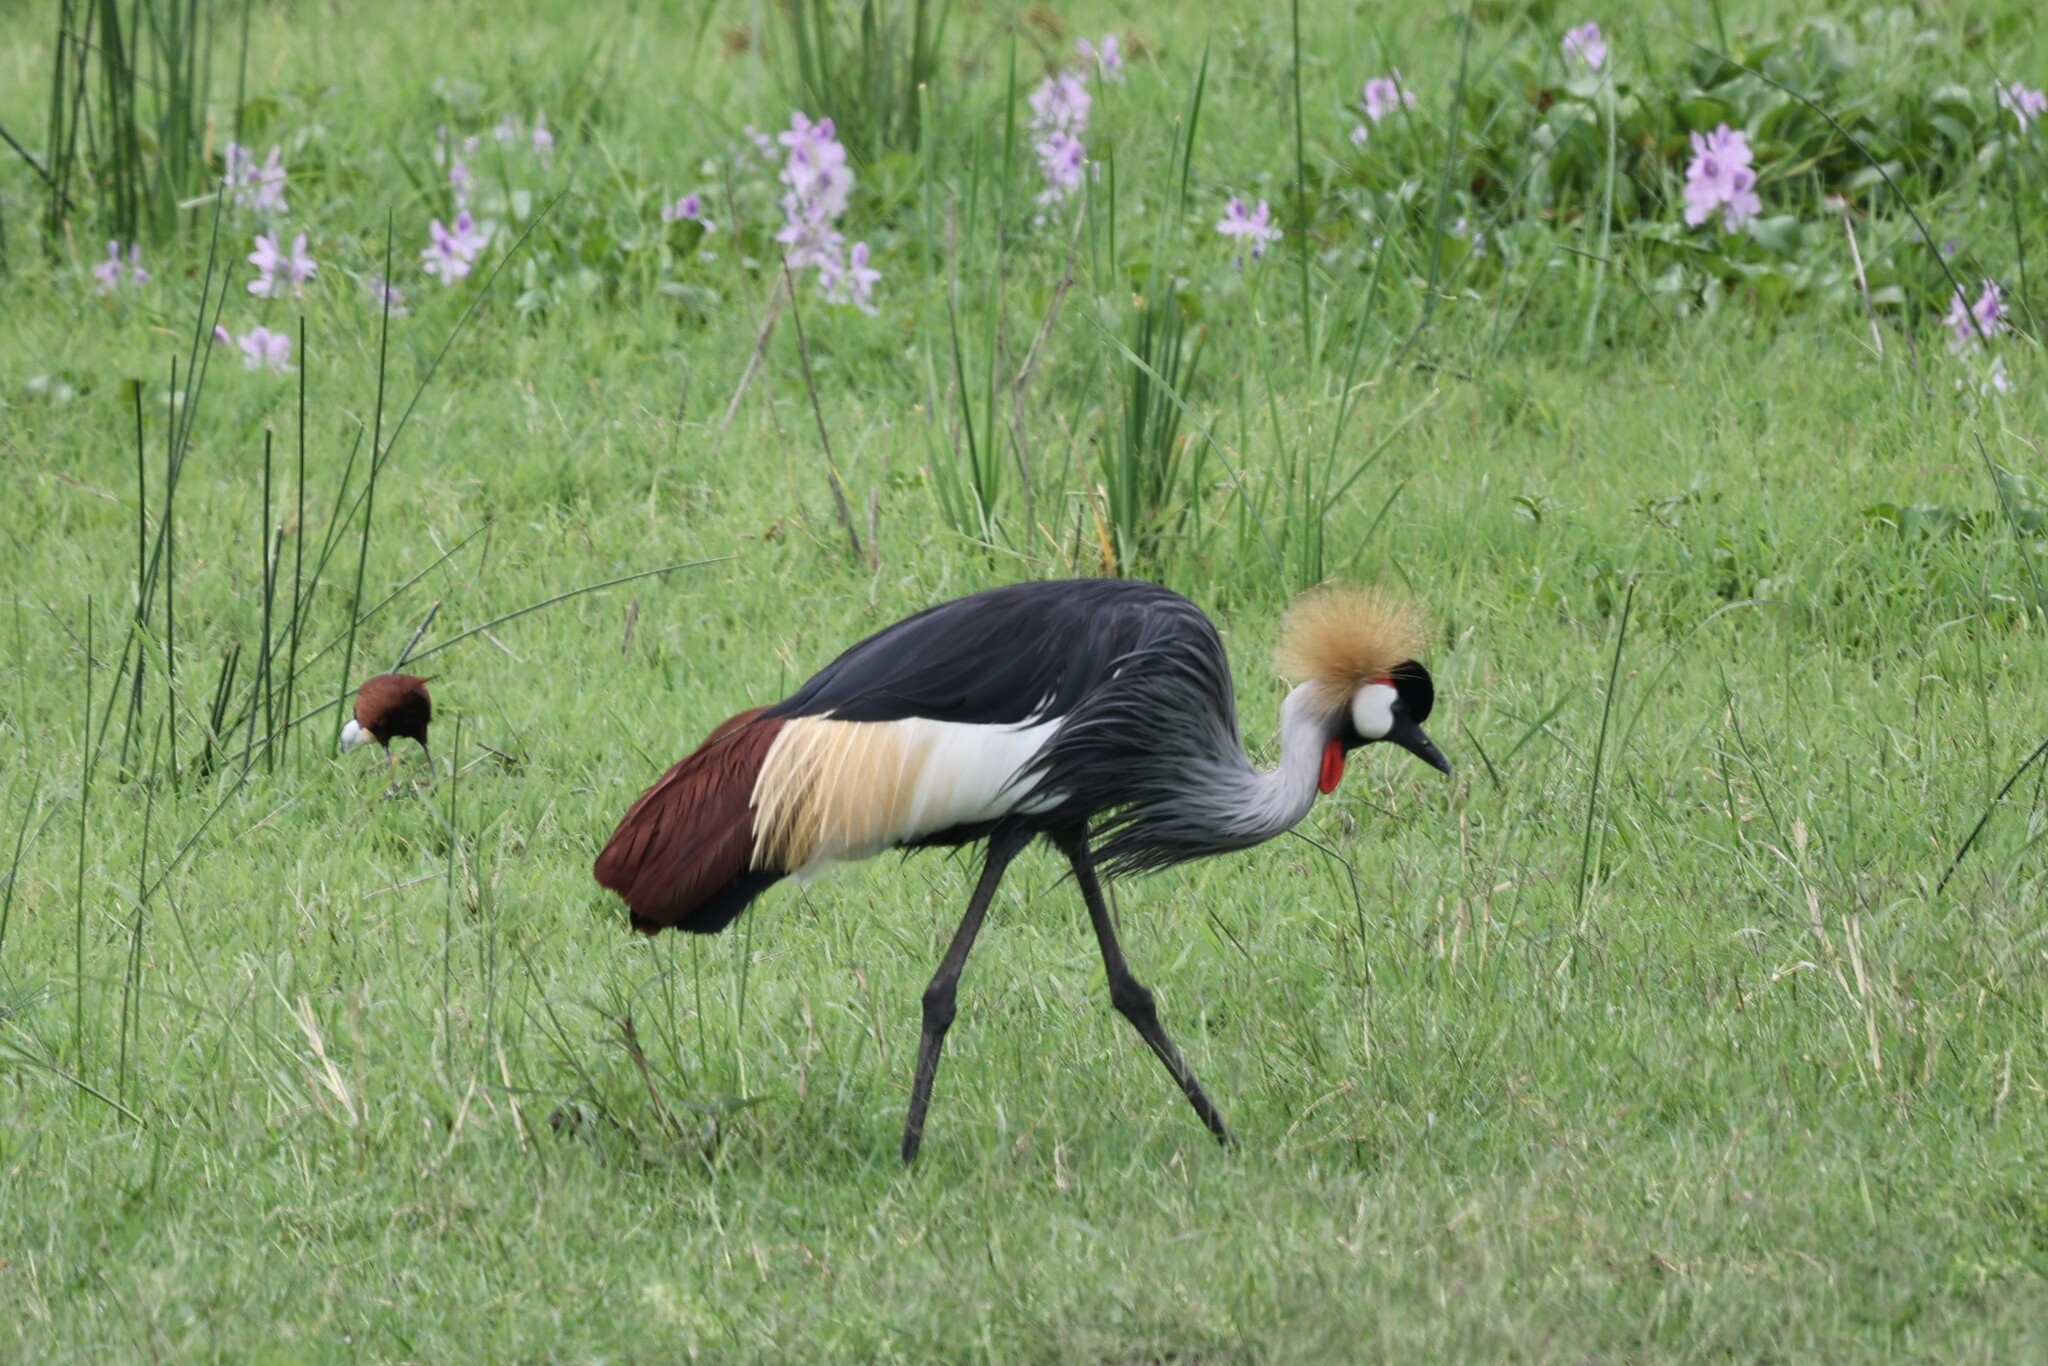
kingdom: Animalia
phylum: Chordata
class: Aves
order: Gruiformes
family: Gruidae
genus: Balearica
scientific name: Balearica regulorum
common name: Grey crowned crane
